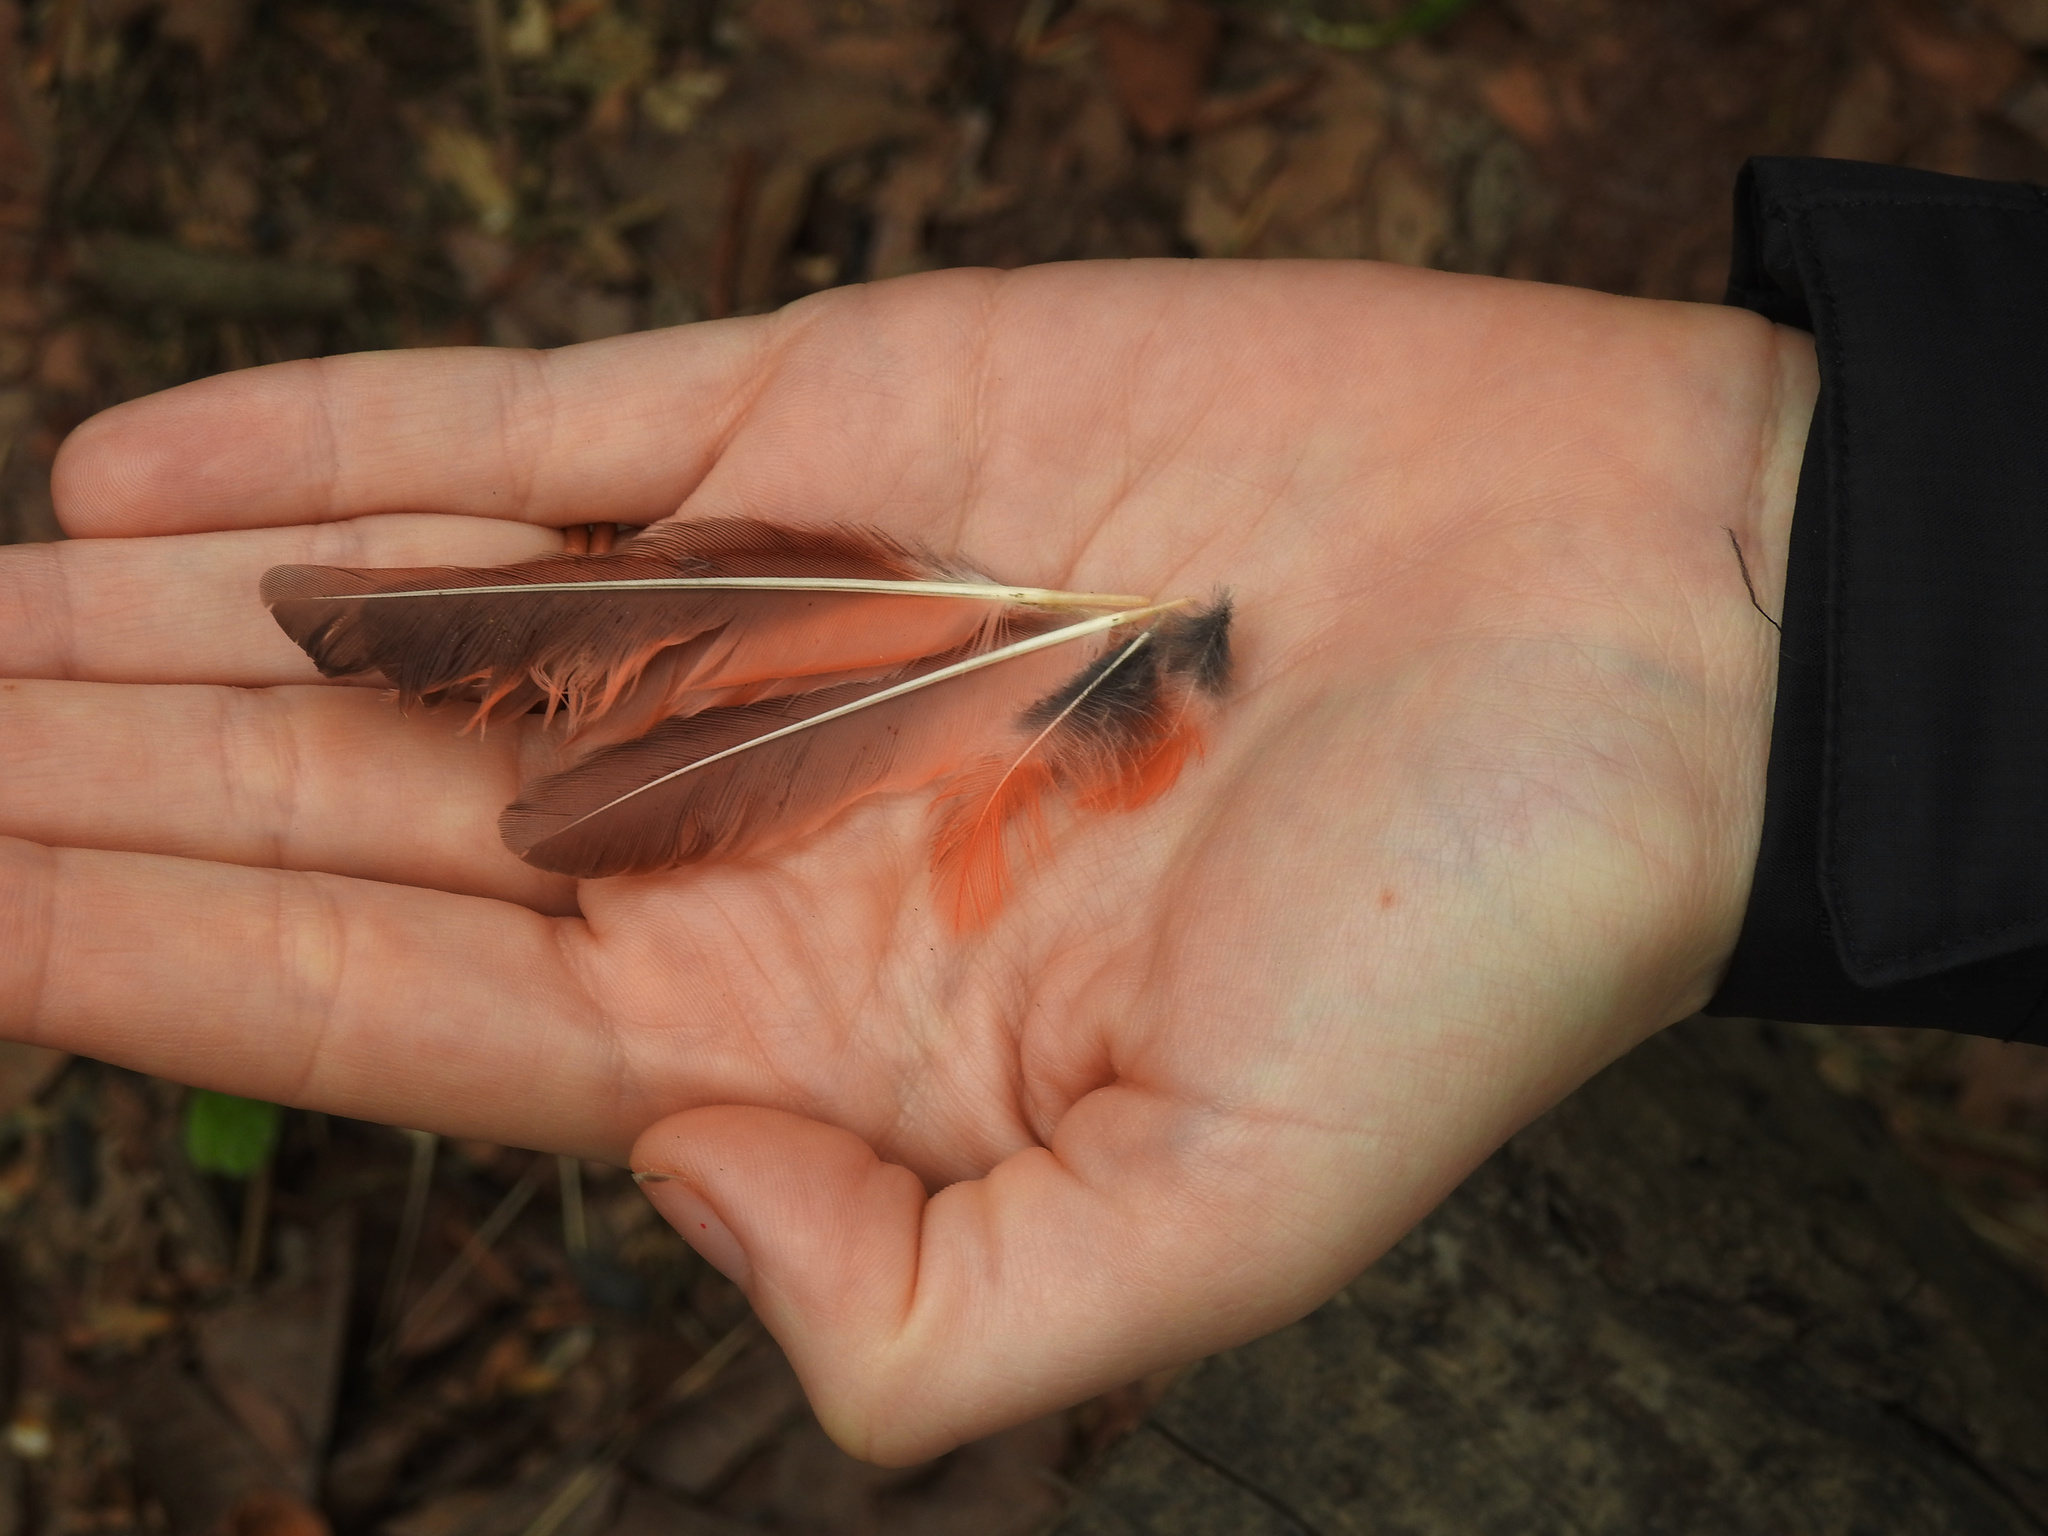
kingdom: Animalia
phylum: Chordata
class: Aves
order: Passeriformes
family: Cardinalidae
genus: Cardinalis
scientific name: Cardinalis cardinalis
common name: Northern cardinal
